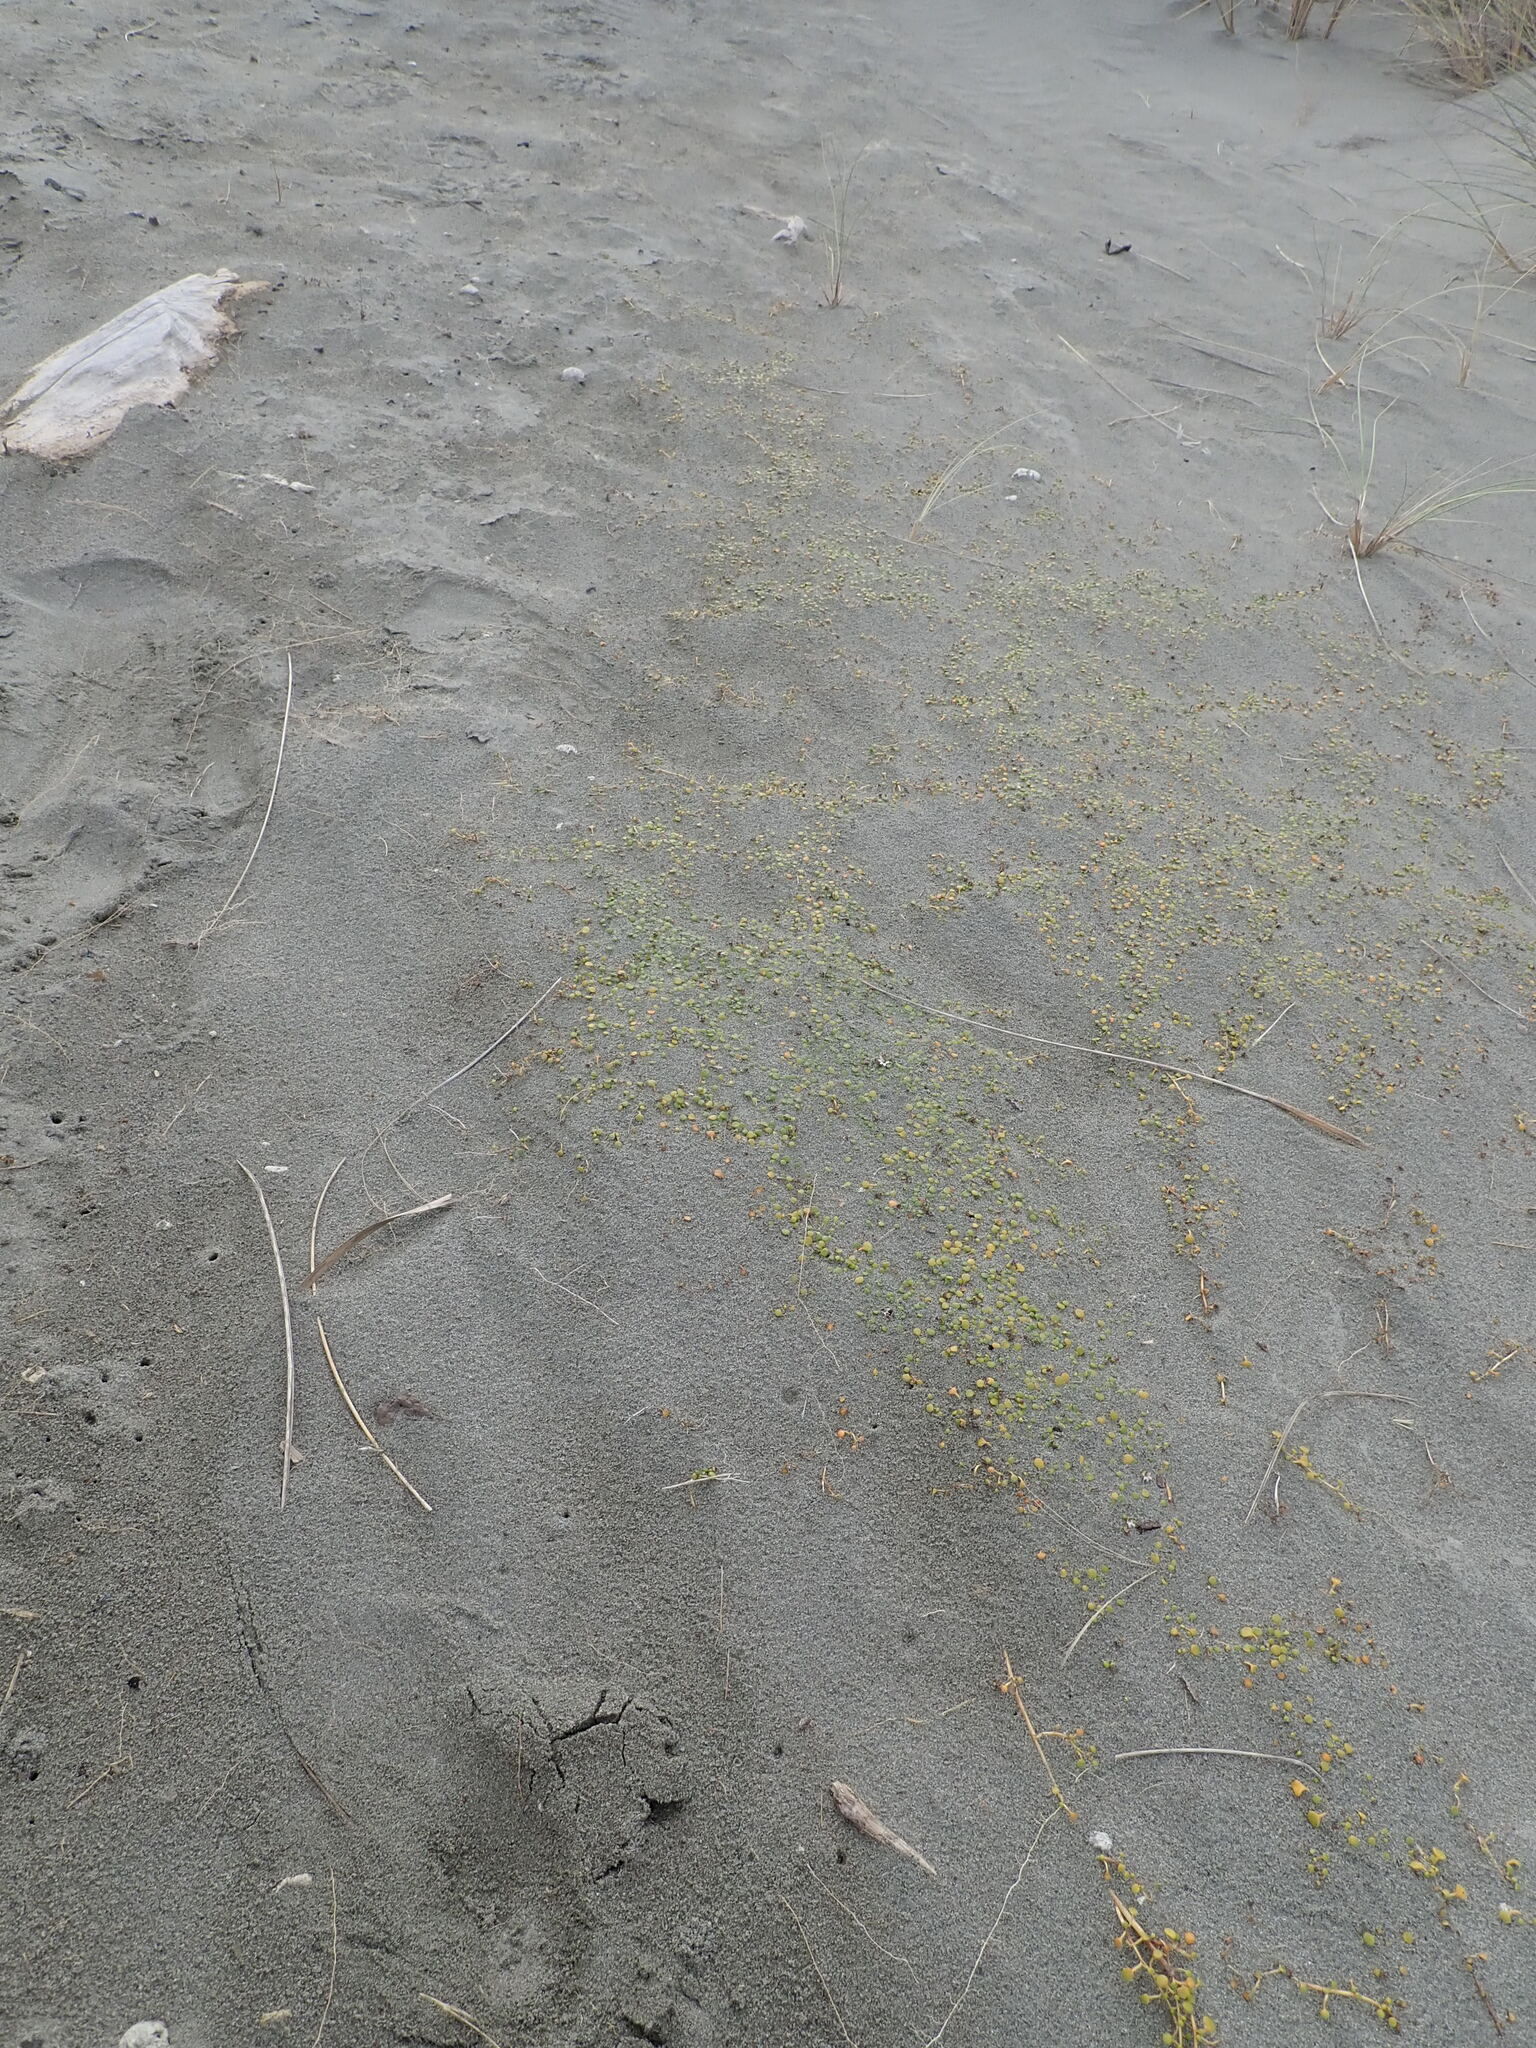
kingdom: Plantae
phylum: Tracheophyta
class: Magnoliopsida
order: Asterales
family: Goodeniaceae
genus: Goodenia
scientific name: Goodenia heenanii
